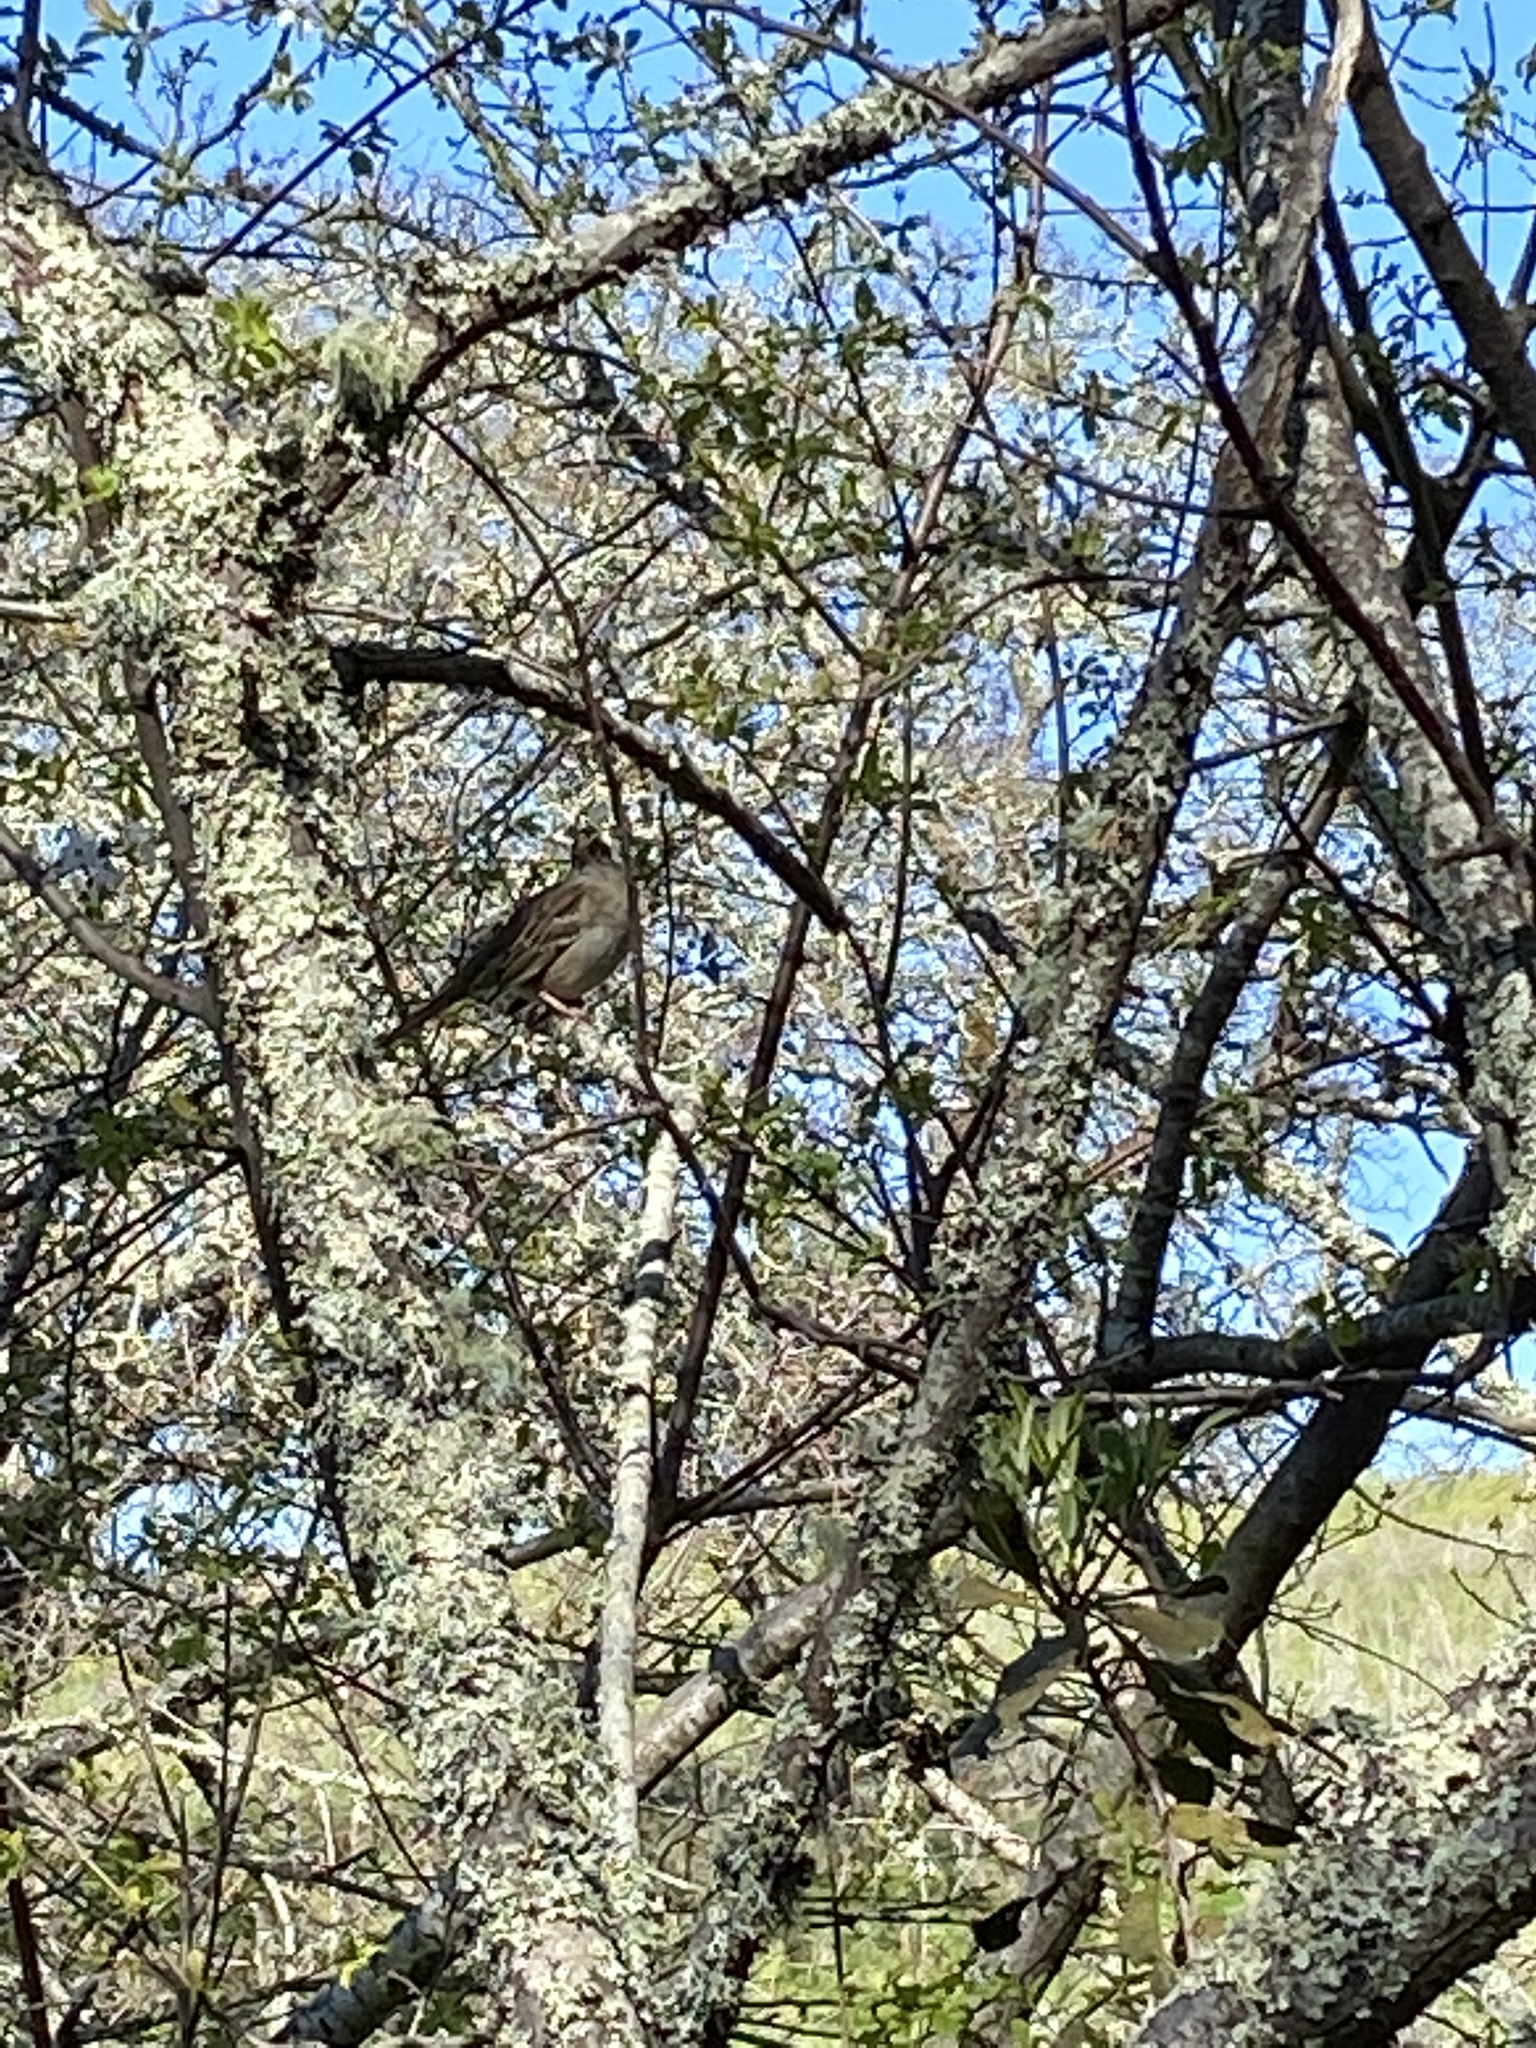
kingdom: Animalia
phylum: Chordata
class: Aves
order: Passeriformes
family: Passerellidae
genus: Zonotrichia
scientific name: Zonotrichia atricapilla
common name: Golden-crowned sparrow
